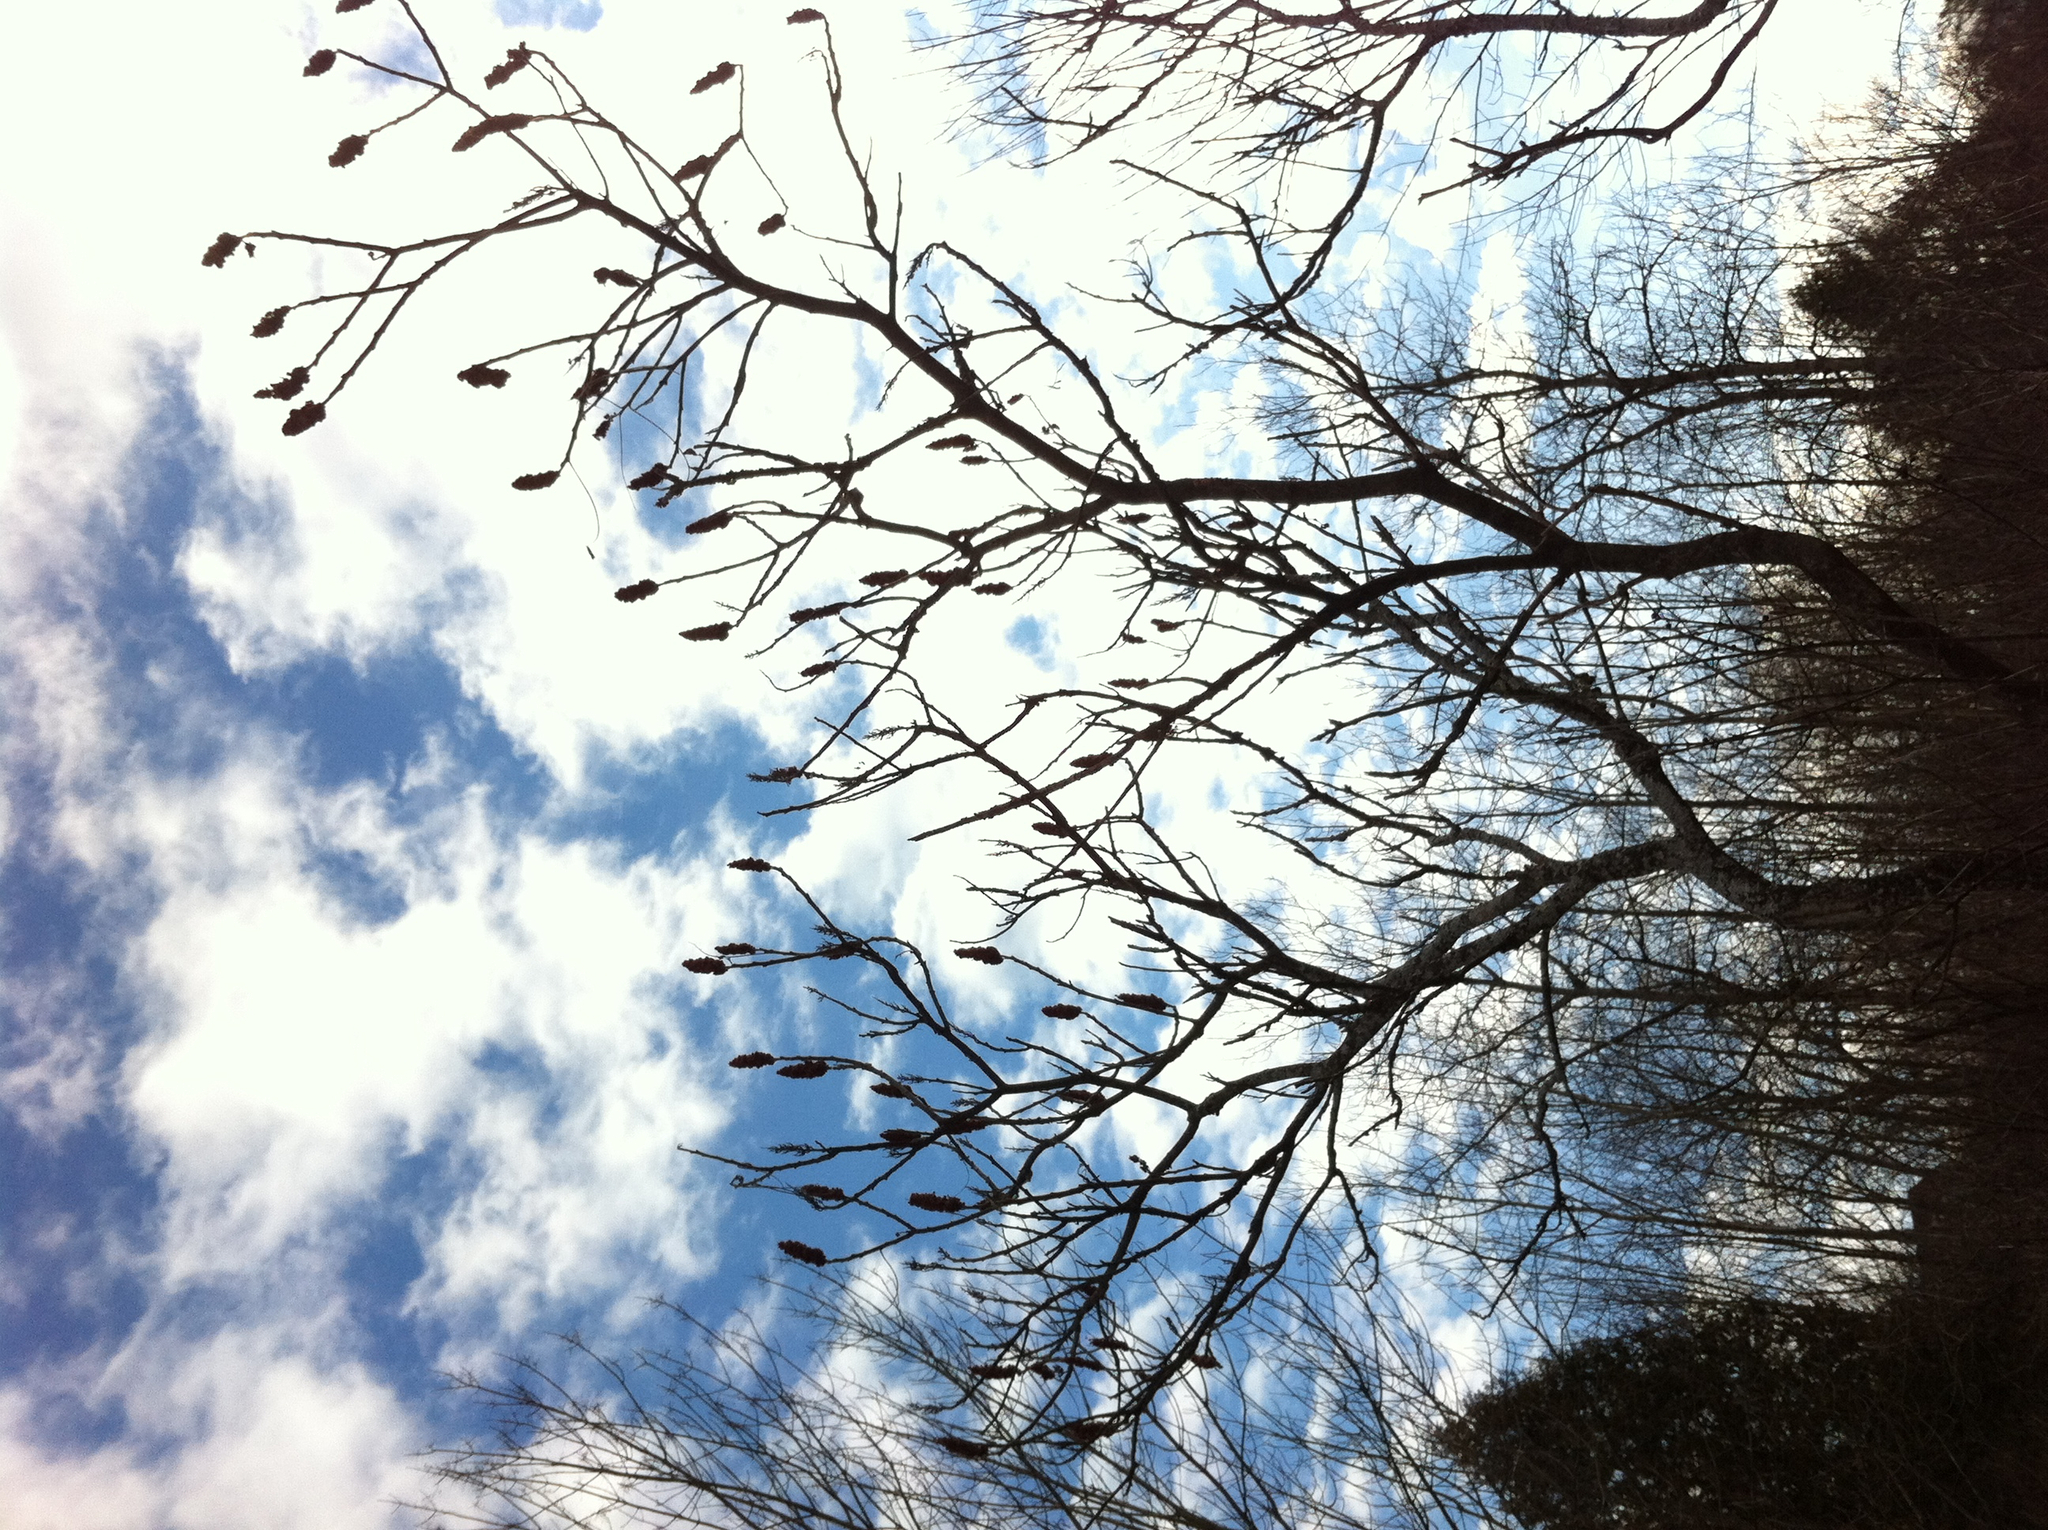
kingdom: Plantae
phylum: Tracheophyta
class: Magnoliopsida
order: Sapindales
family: Anacardiaceae
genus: Rhus
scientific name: Rhus typhina
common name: Staghorn sumac
